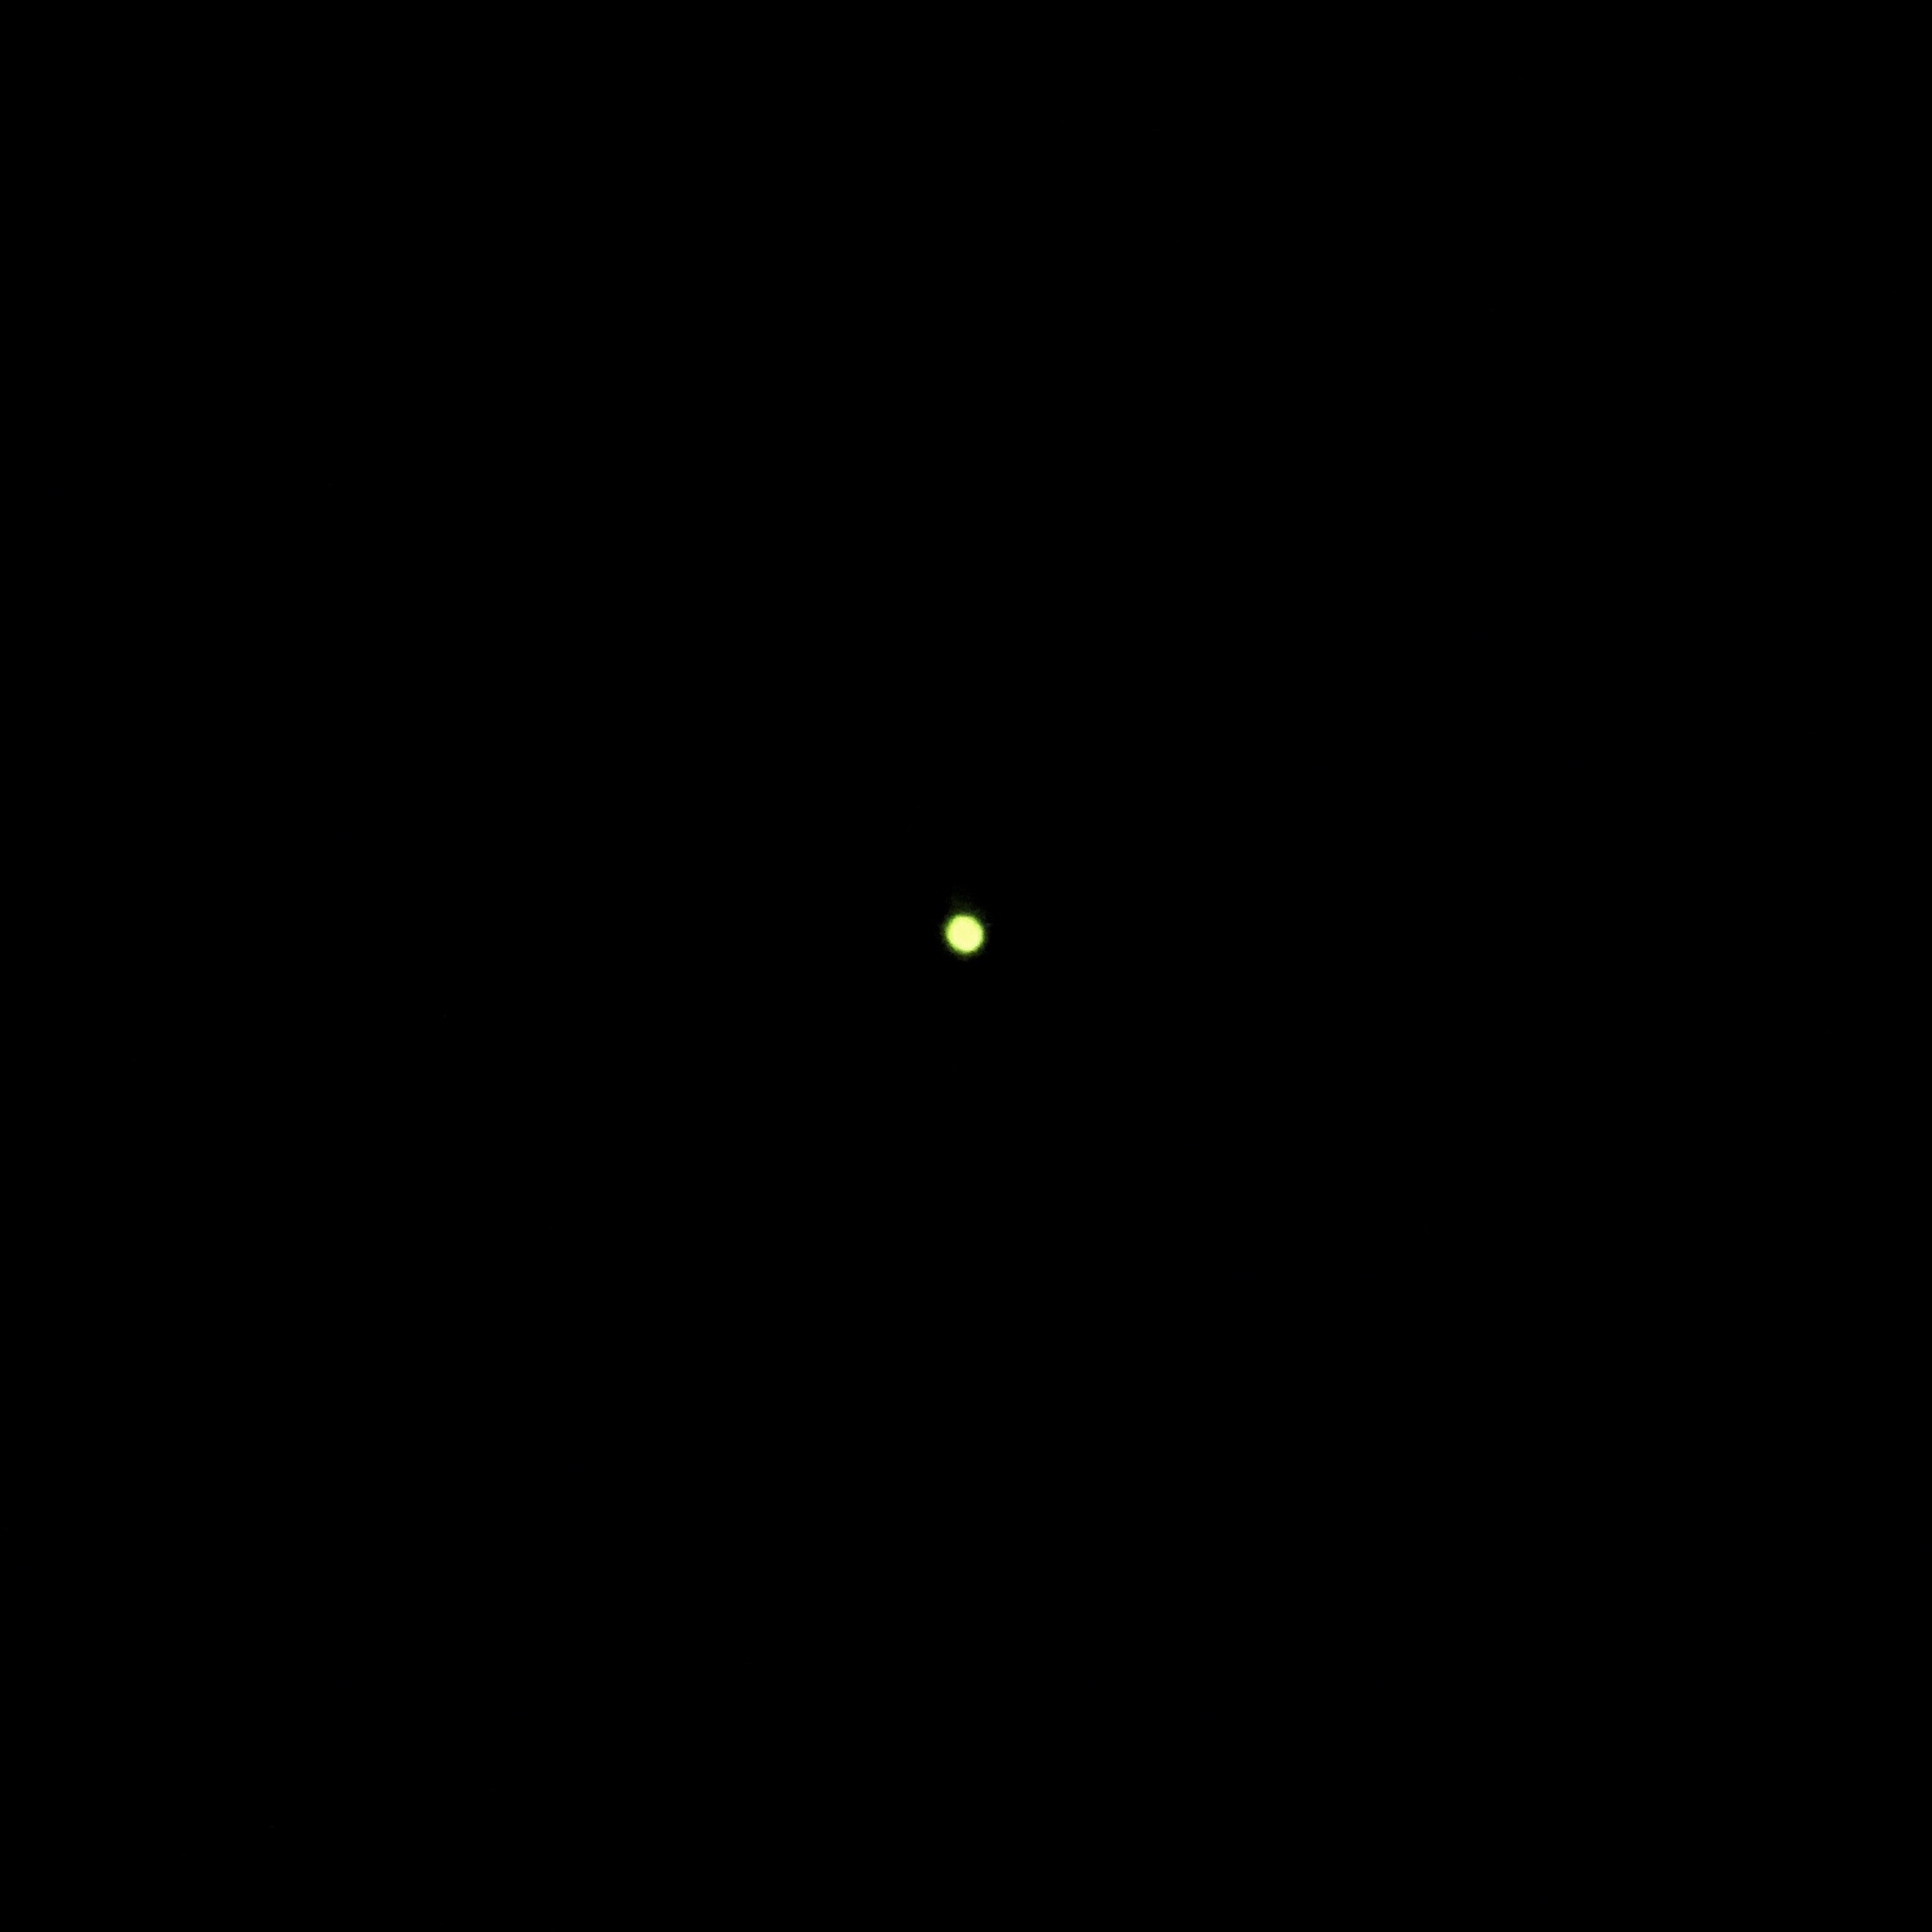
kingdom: Animalia
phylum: Arthropoda
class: Insecta
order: Coleoptera
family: Lampyridae
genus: Microphotus
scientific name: Microphotus angustus
